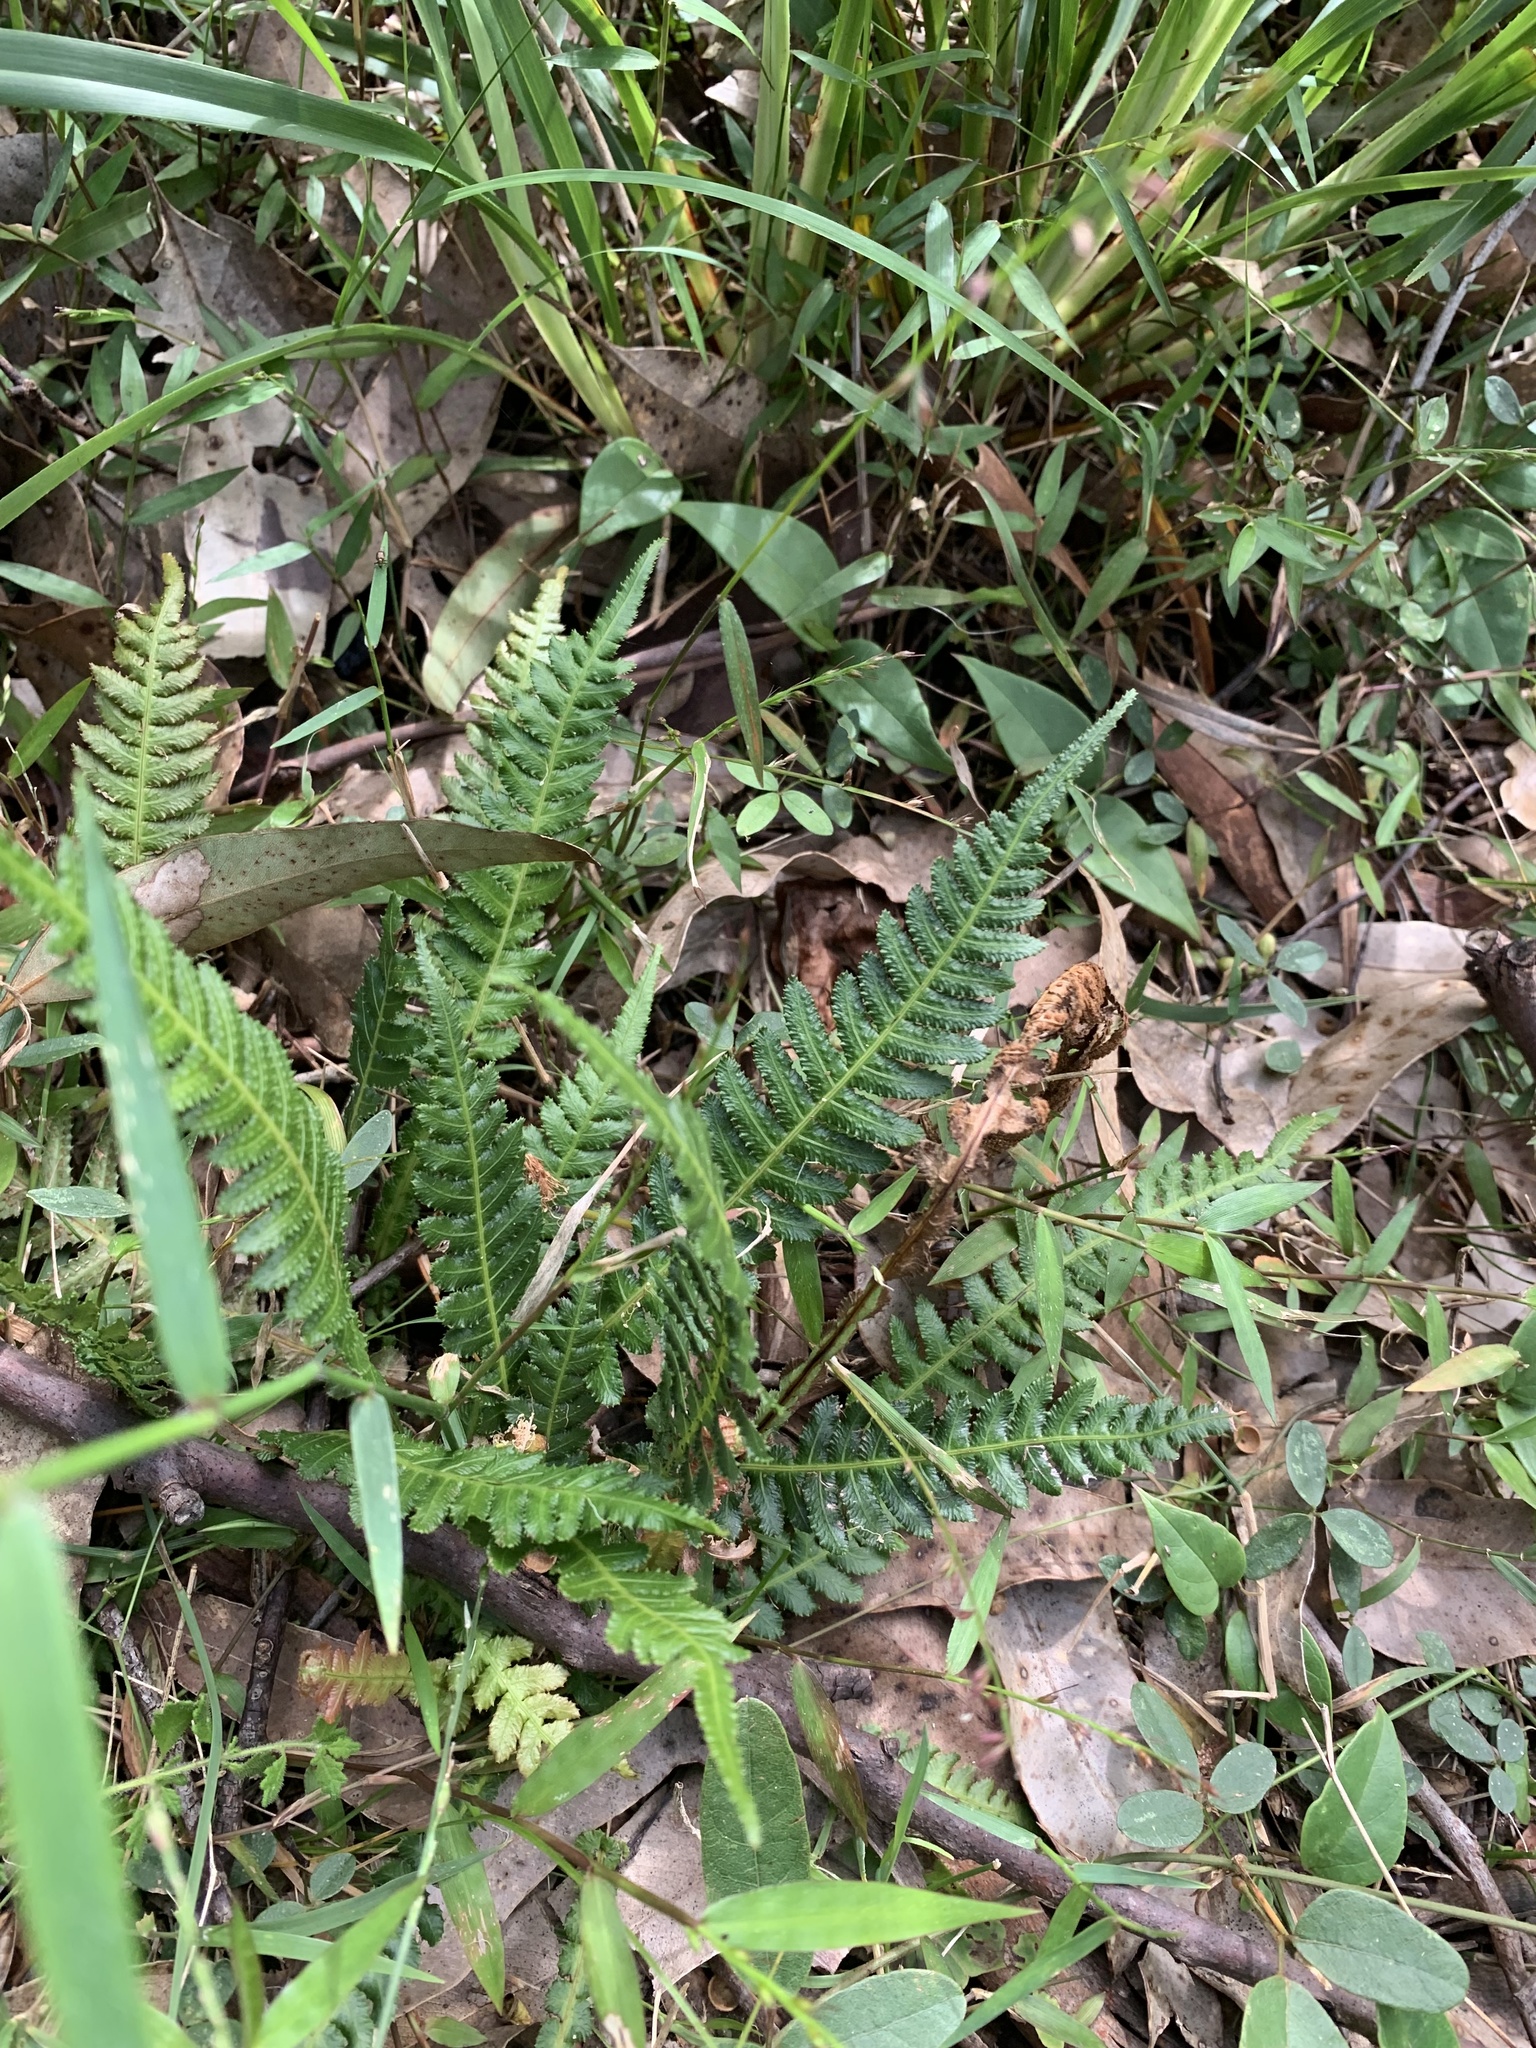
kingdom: Plantae
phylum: Tracheophyta
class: Polypodiopsida
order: Polypodiales
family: Blechnaceae
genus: Doodia
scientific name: Doodia aspera
